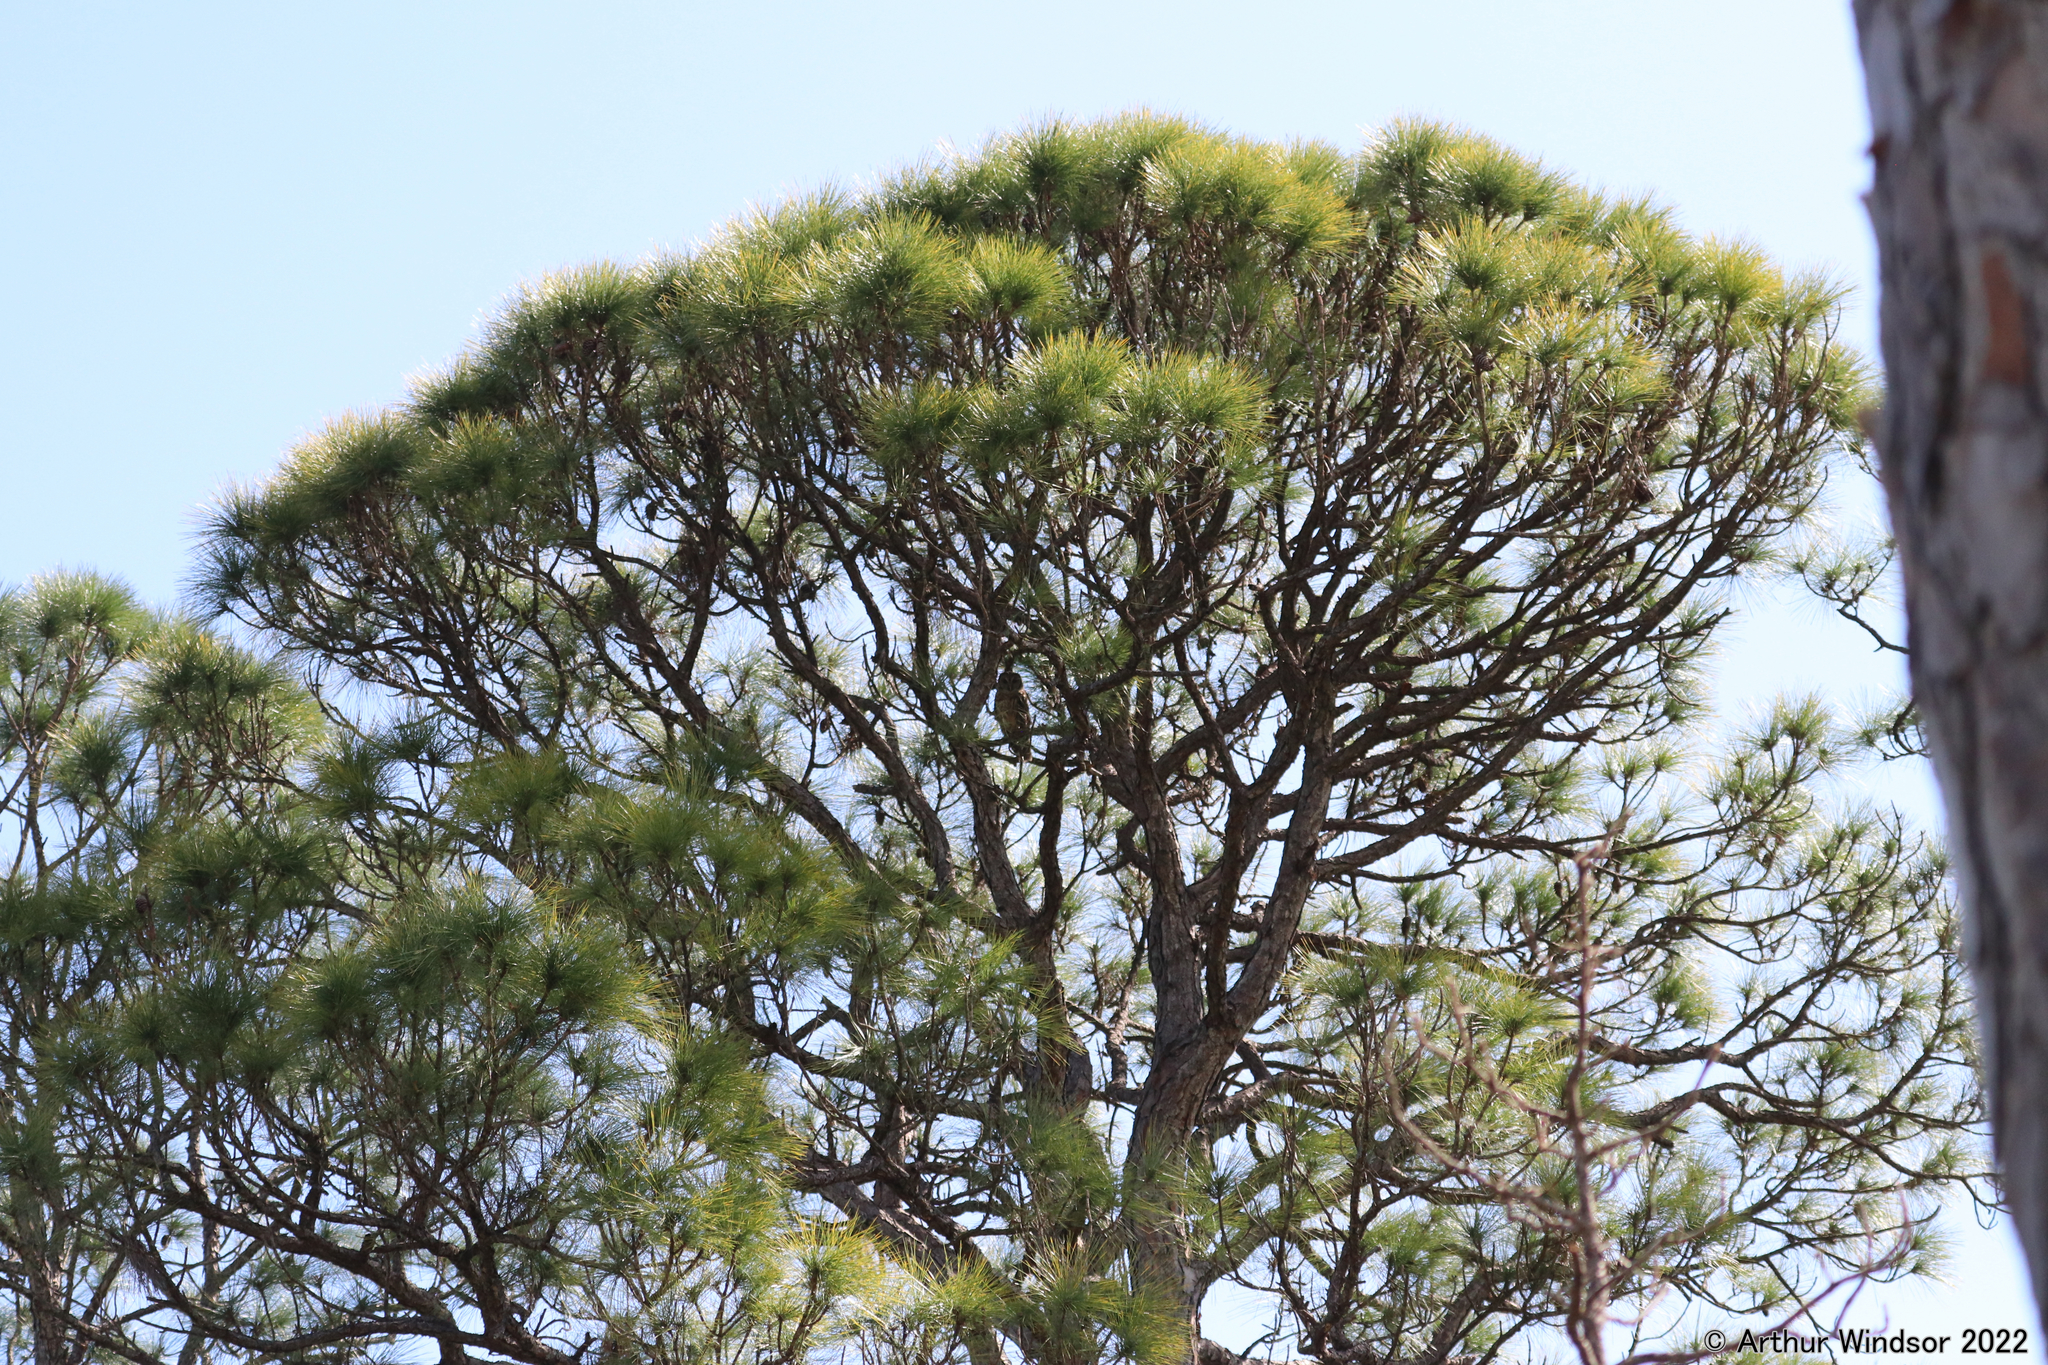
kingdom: Animalia
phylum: Chordata
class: Aves
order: Strigiformes
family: Strigidae
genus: Strix
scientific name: Strix varia
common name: Barred owl
